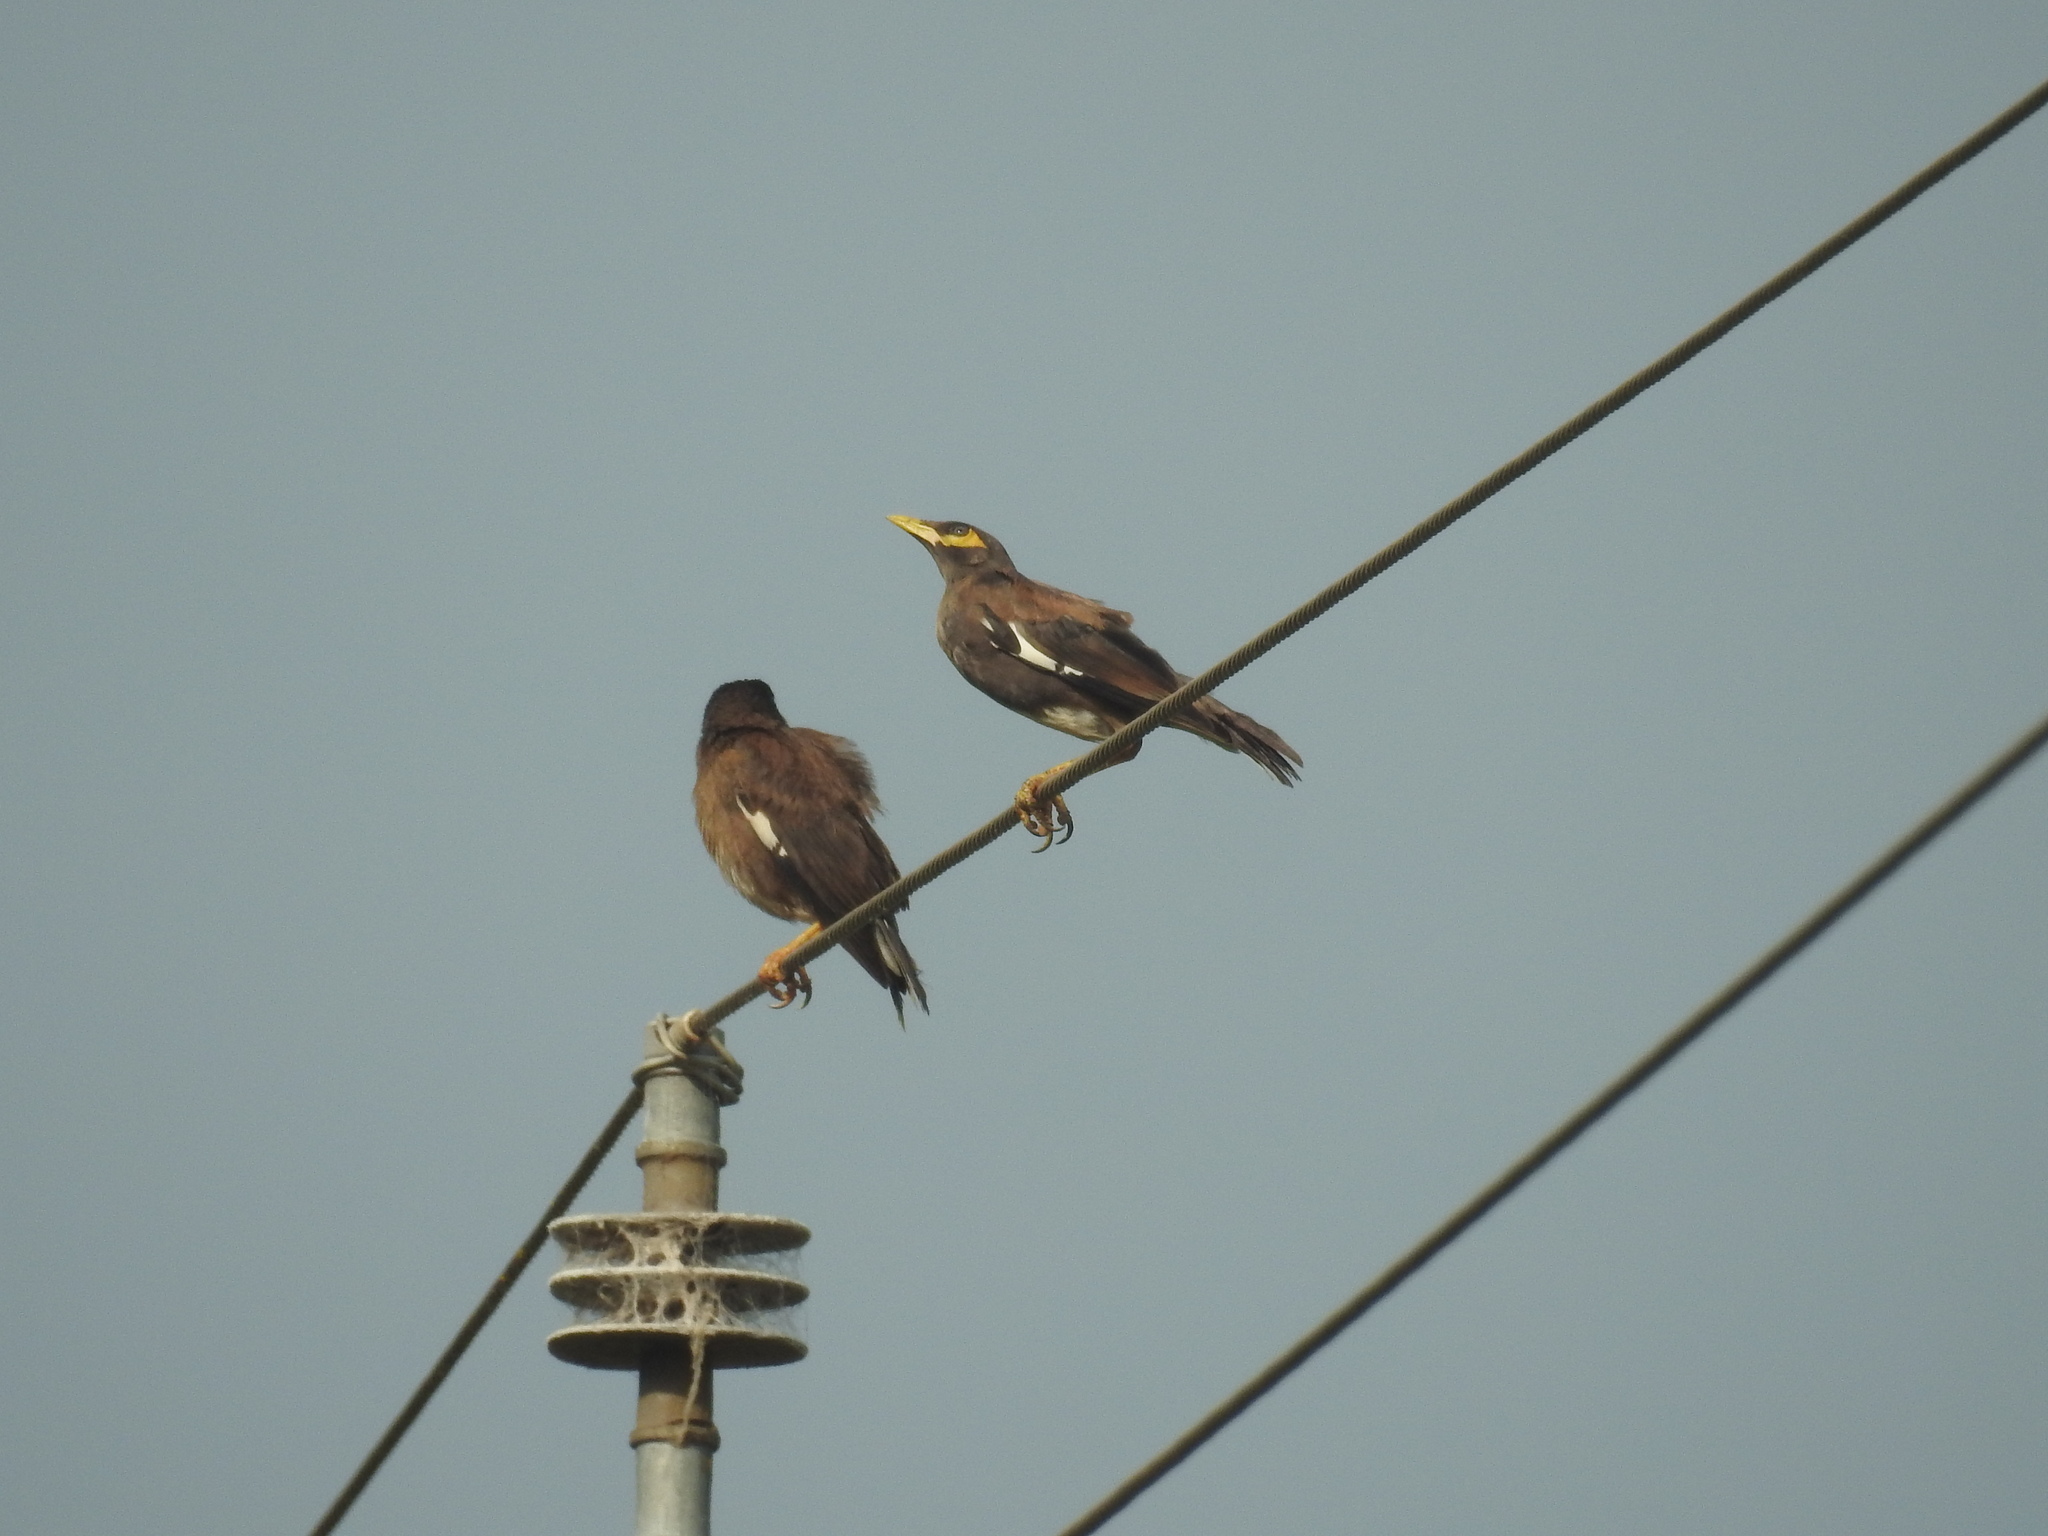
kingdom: Animalia
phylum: Chordata
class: Aves
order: Passeriformes
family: Sturnidae
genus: Acridotheres
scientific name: Acridotheres tristis
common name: Common myna
